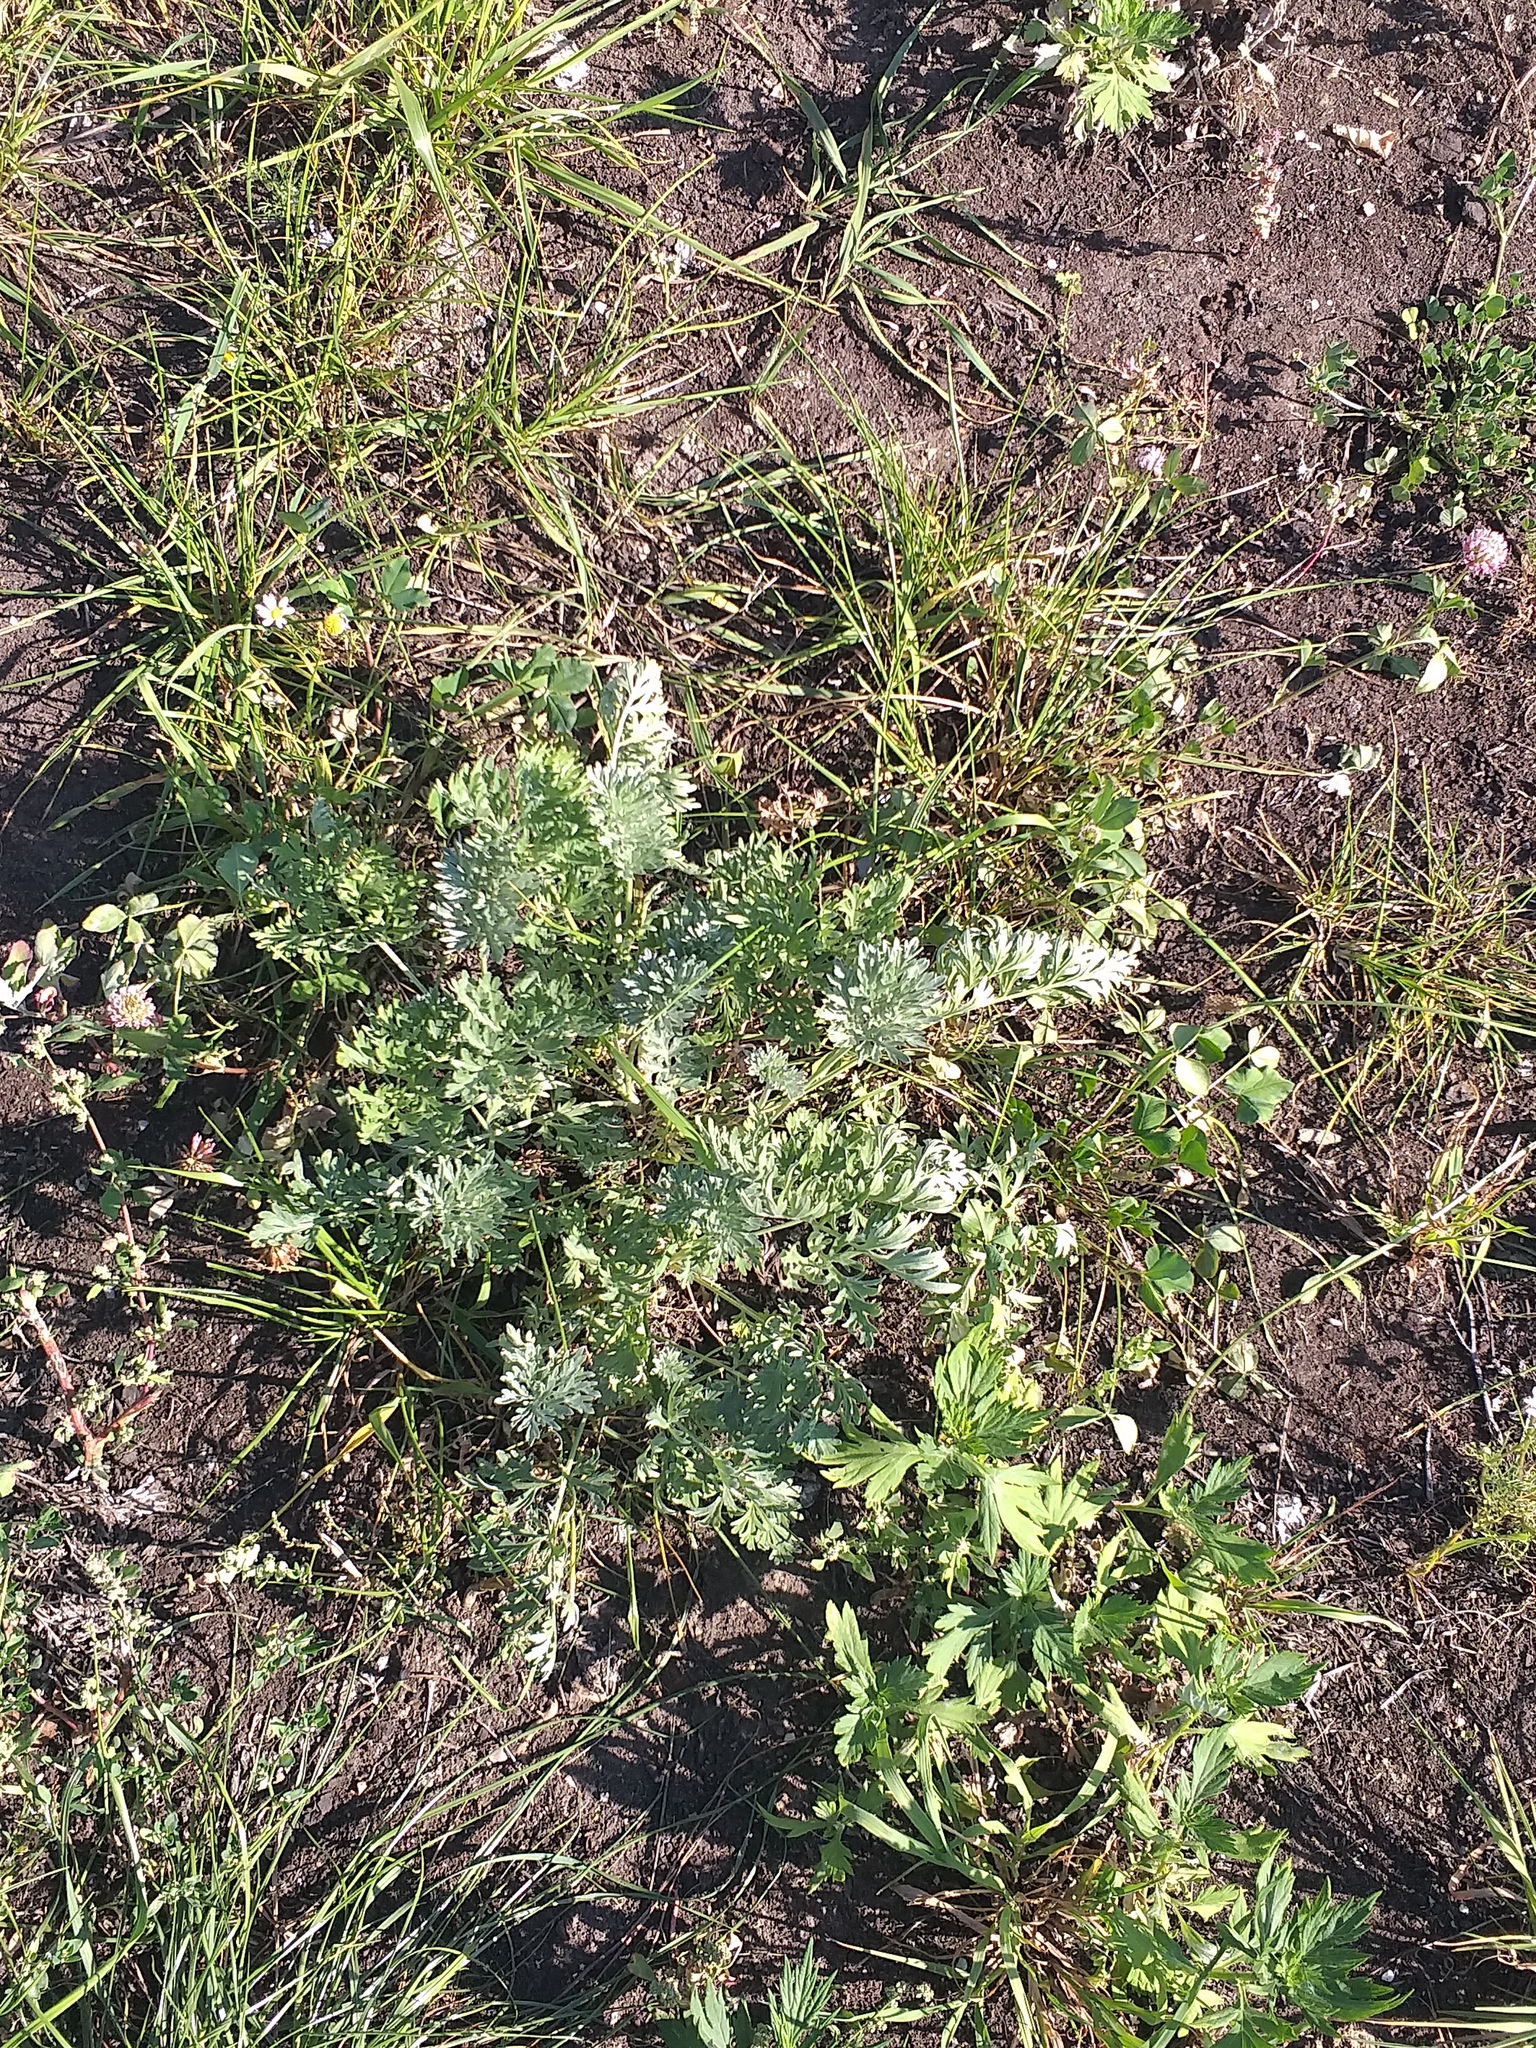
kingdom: Plantae
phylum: Tracheophyta
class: Magnoliopsida
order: Asterales
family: Asteraceae
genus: Artemisia
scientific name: Artemisia absinthium
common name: Wormwood
